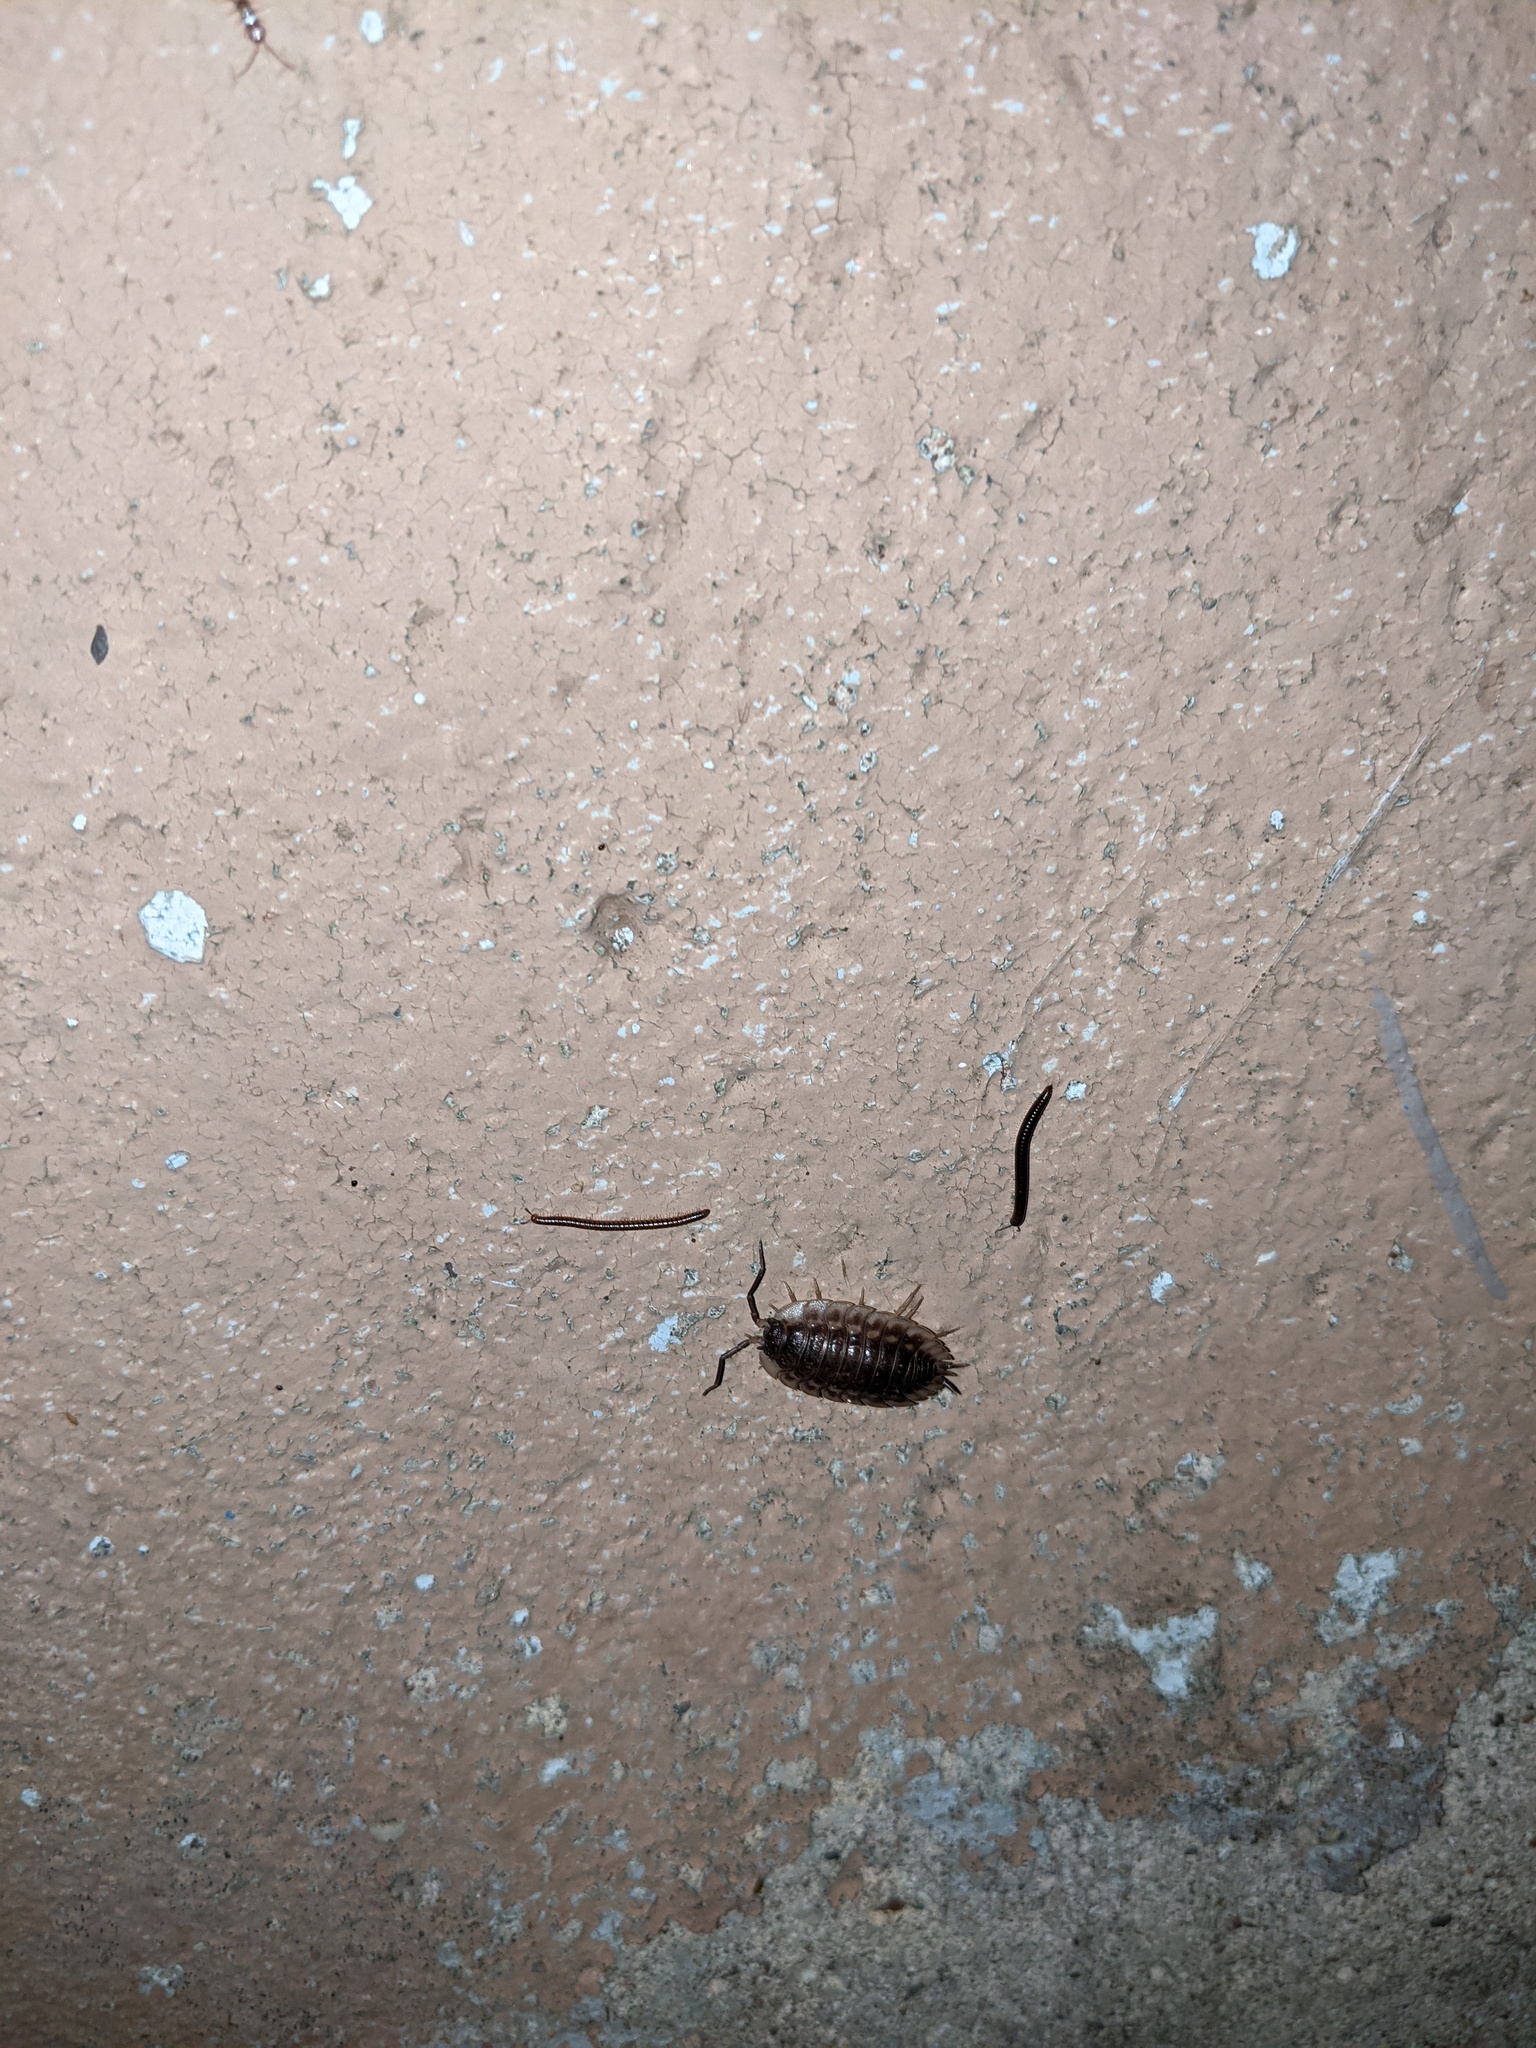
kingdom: Animalia
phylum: Arthropoda
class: Malacostraca
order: Isopoda
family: Oniscidae
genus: Oniscus
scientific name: Oniscus asellus
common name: Common shiny woodlouse
